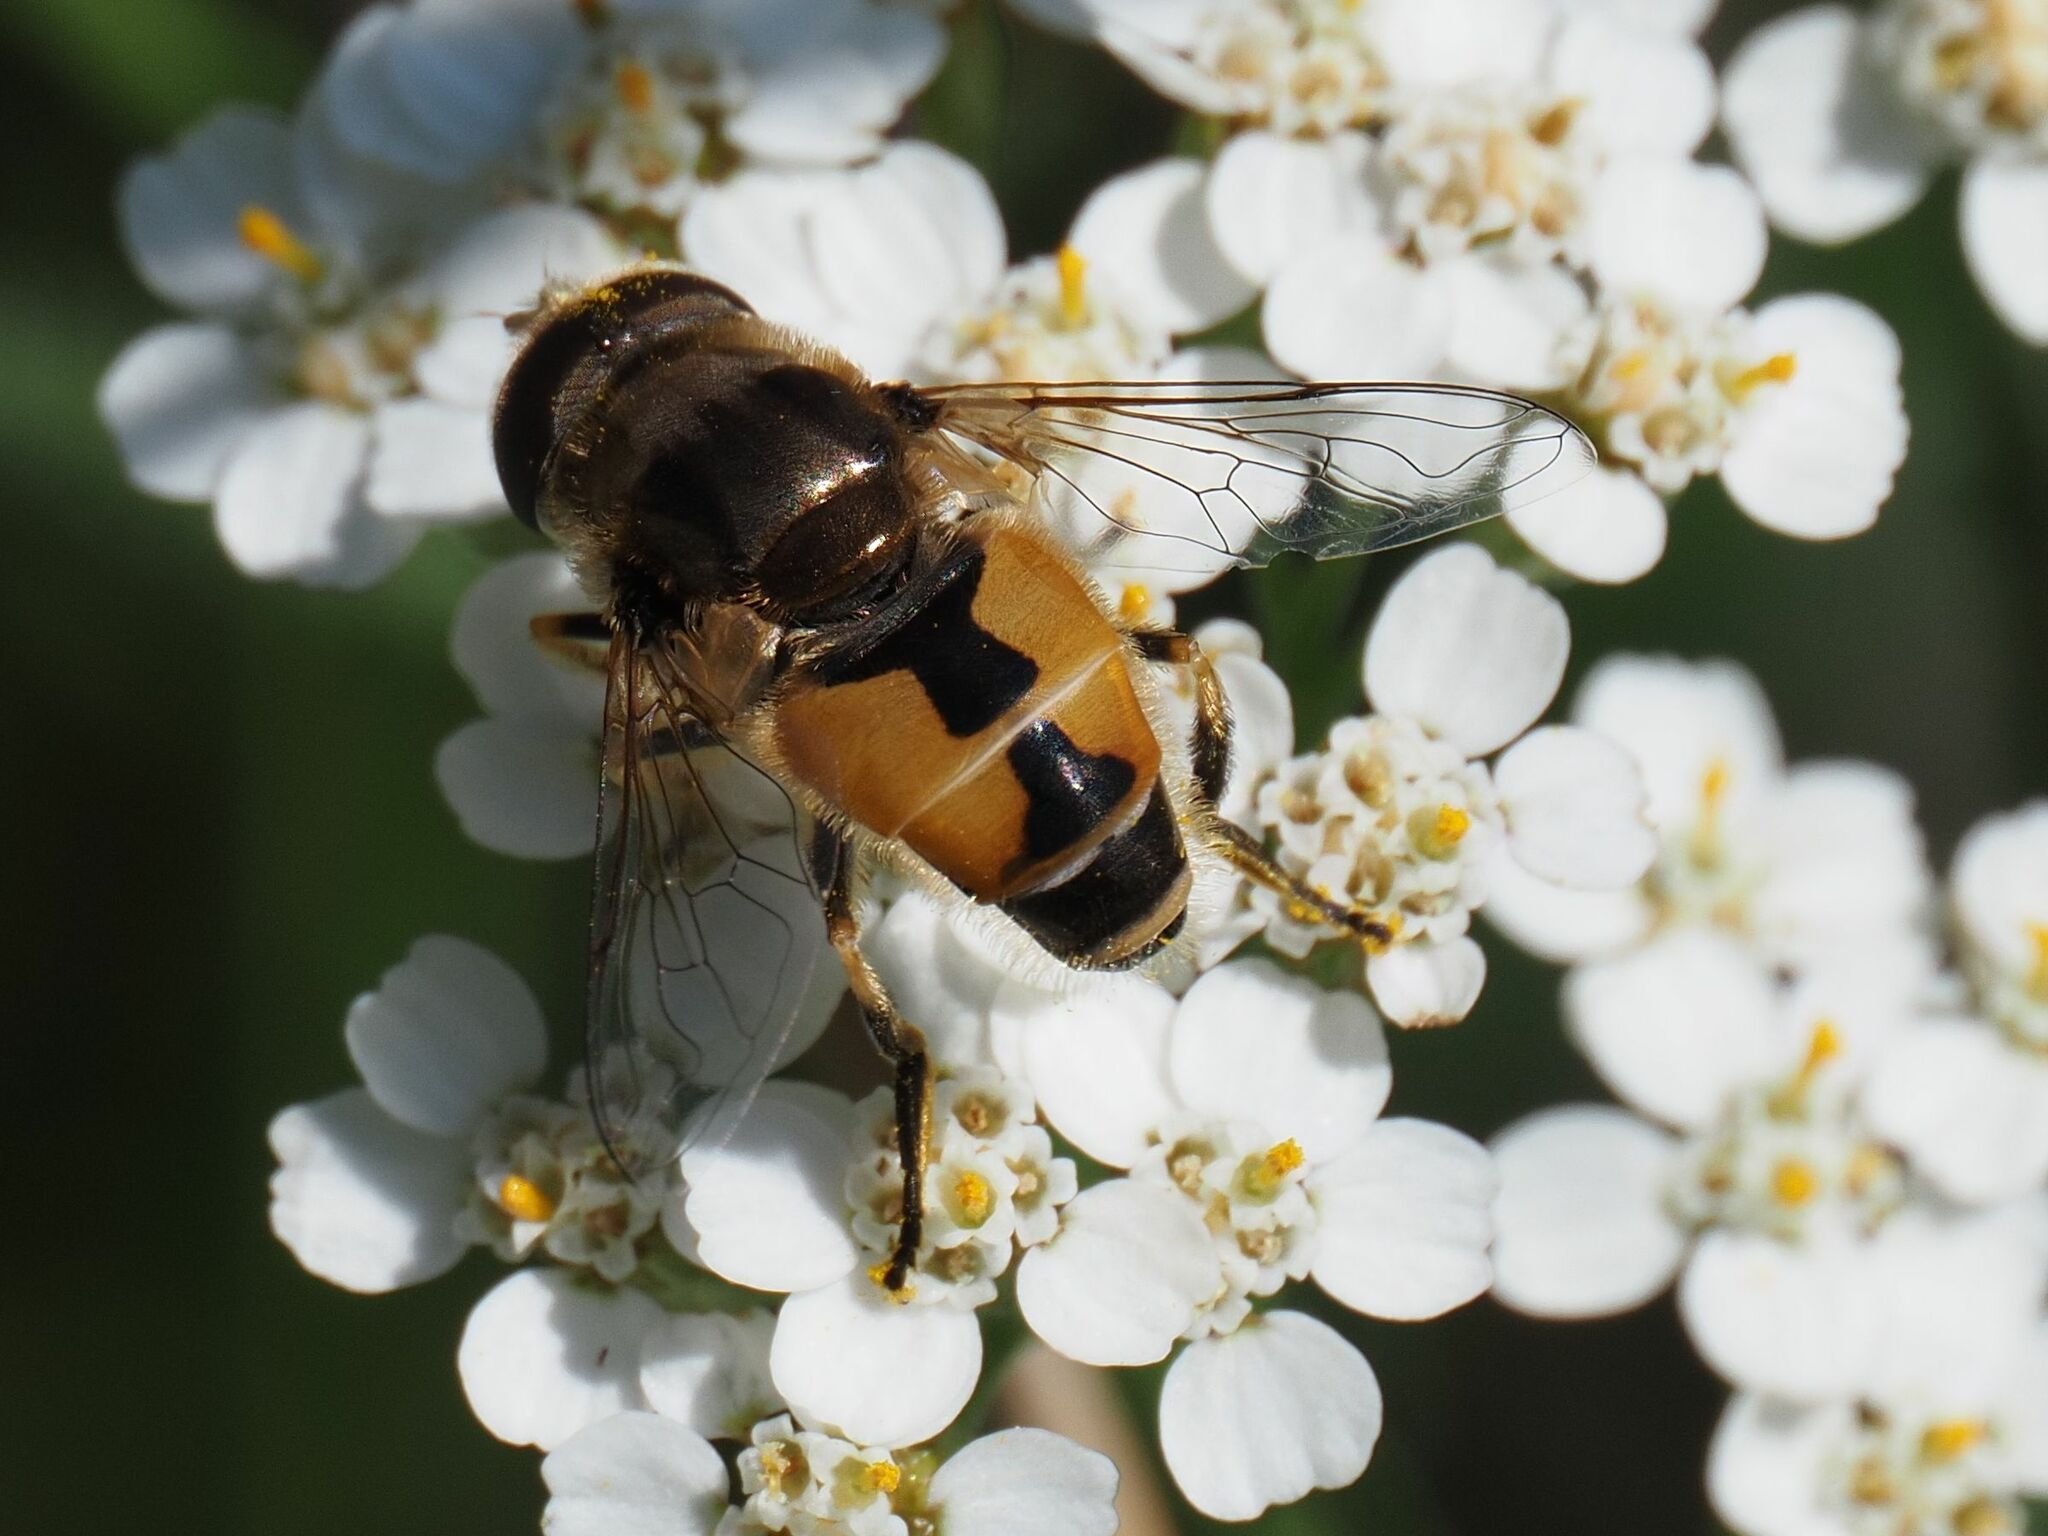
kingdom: Animalia
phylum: Arthropoda
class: Insecta
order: Diptera
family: Syrphidae
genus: Eristalis
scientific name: Eristalis arbustorum
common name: Hover fly
